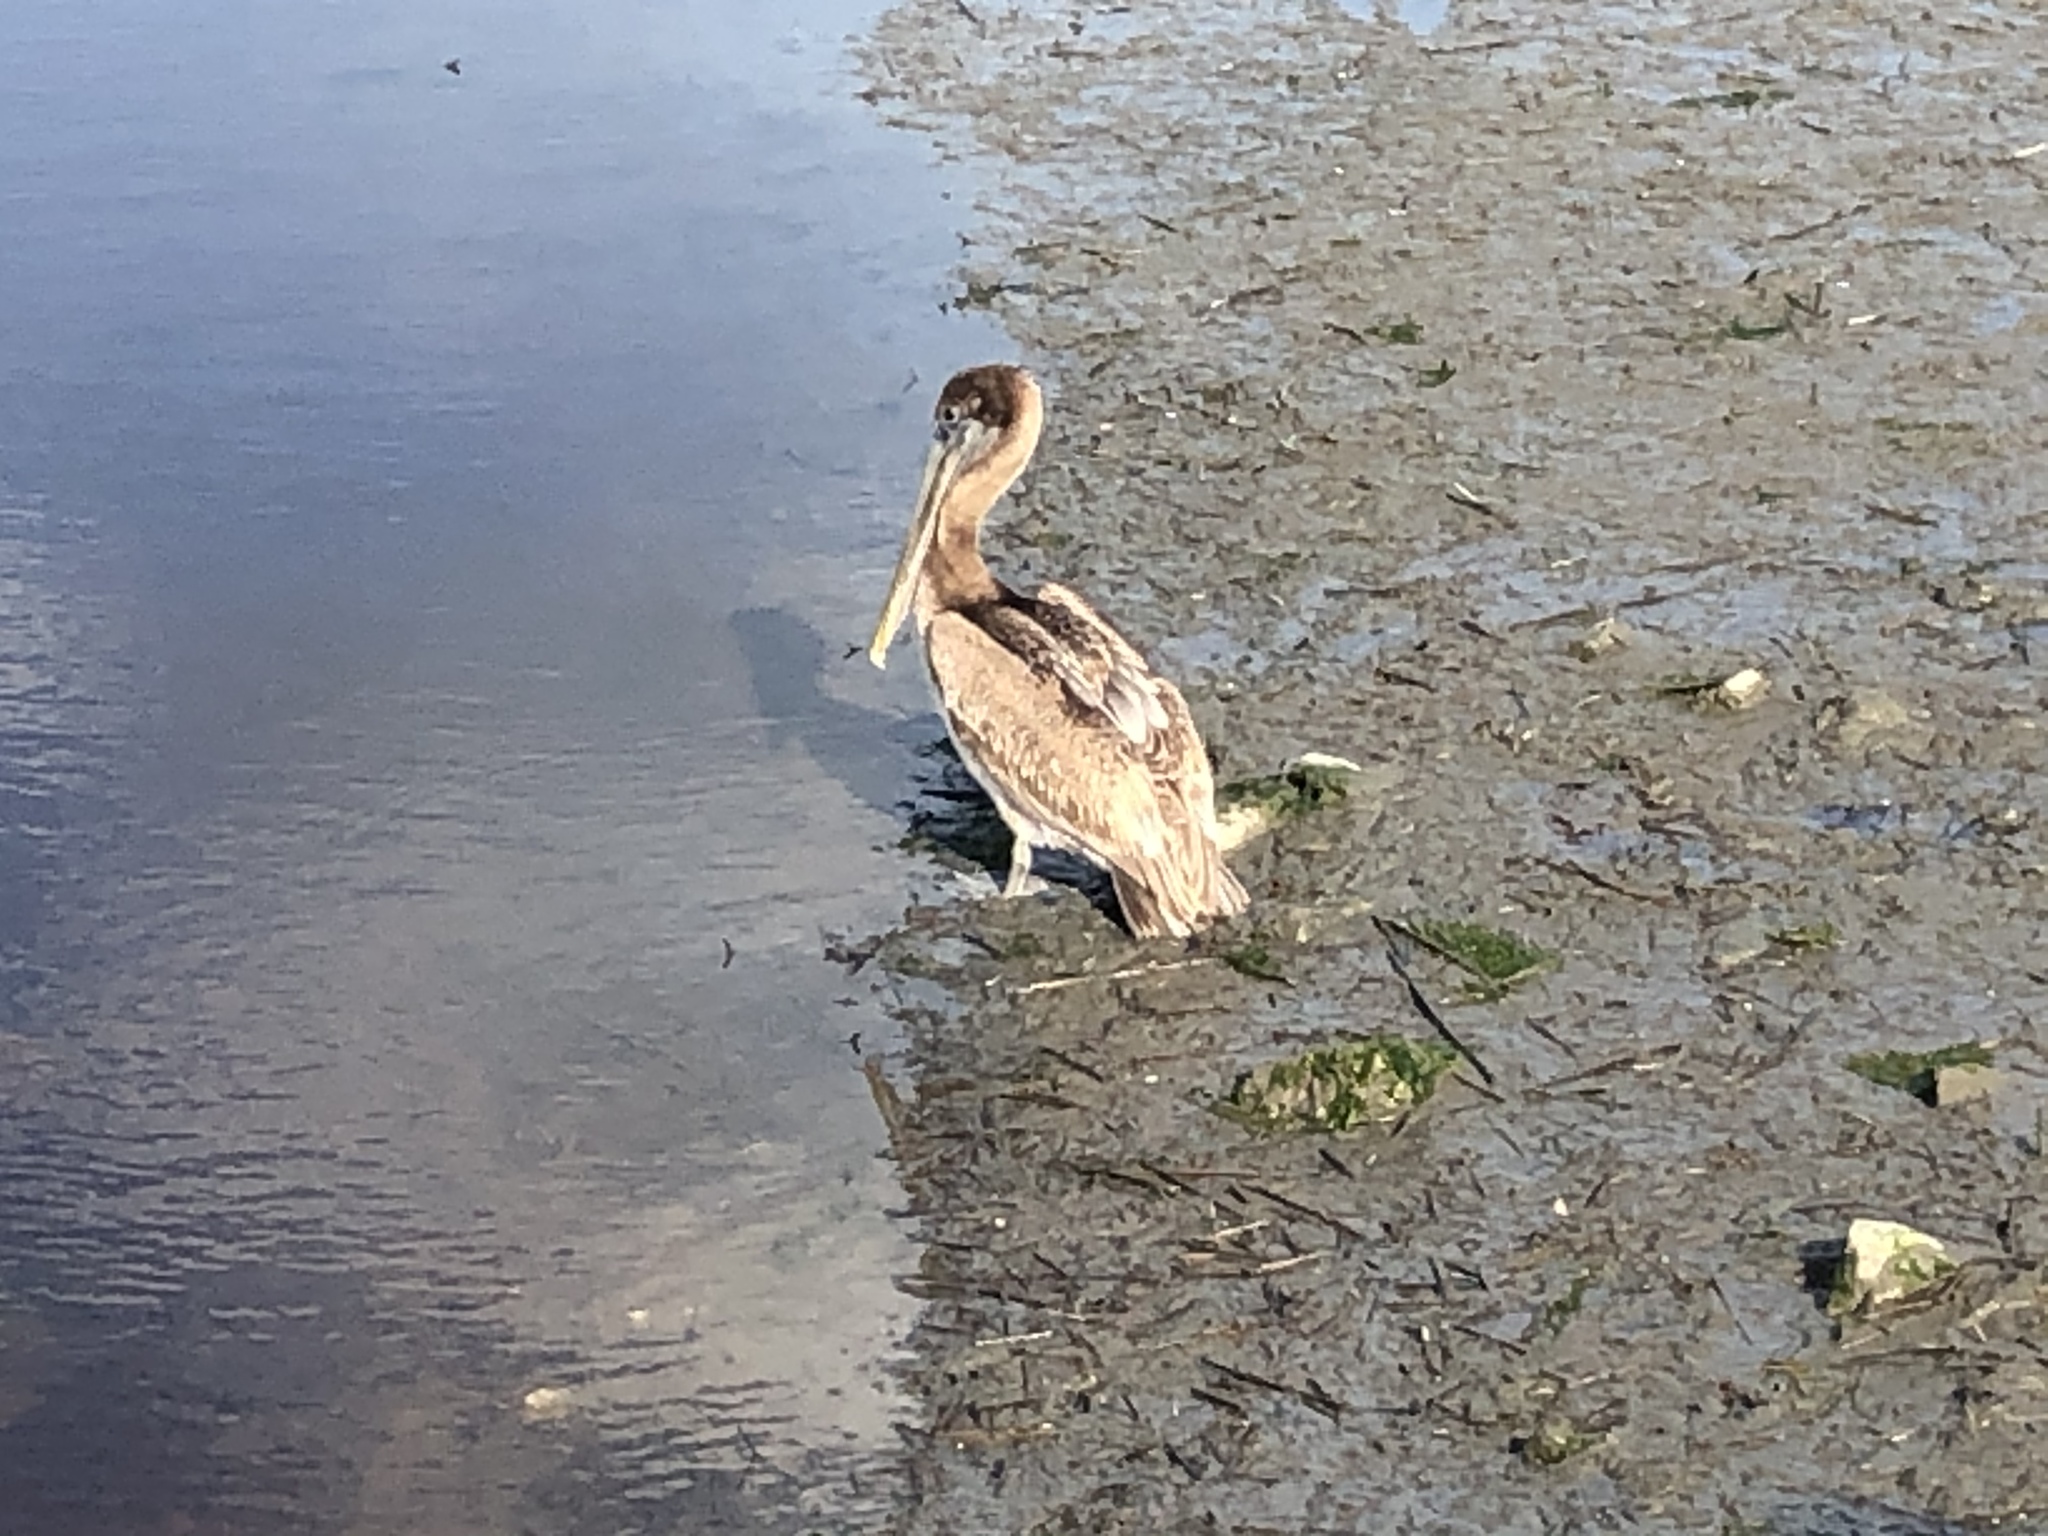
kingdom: Animalia
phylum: Chordata
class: Aves
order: Pelecaniformes
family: Pelecanidae
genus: Pelecanus
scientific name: Pelecanus occidentalis
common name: Brown pelican
